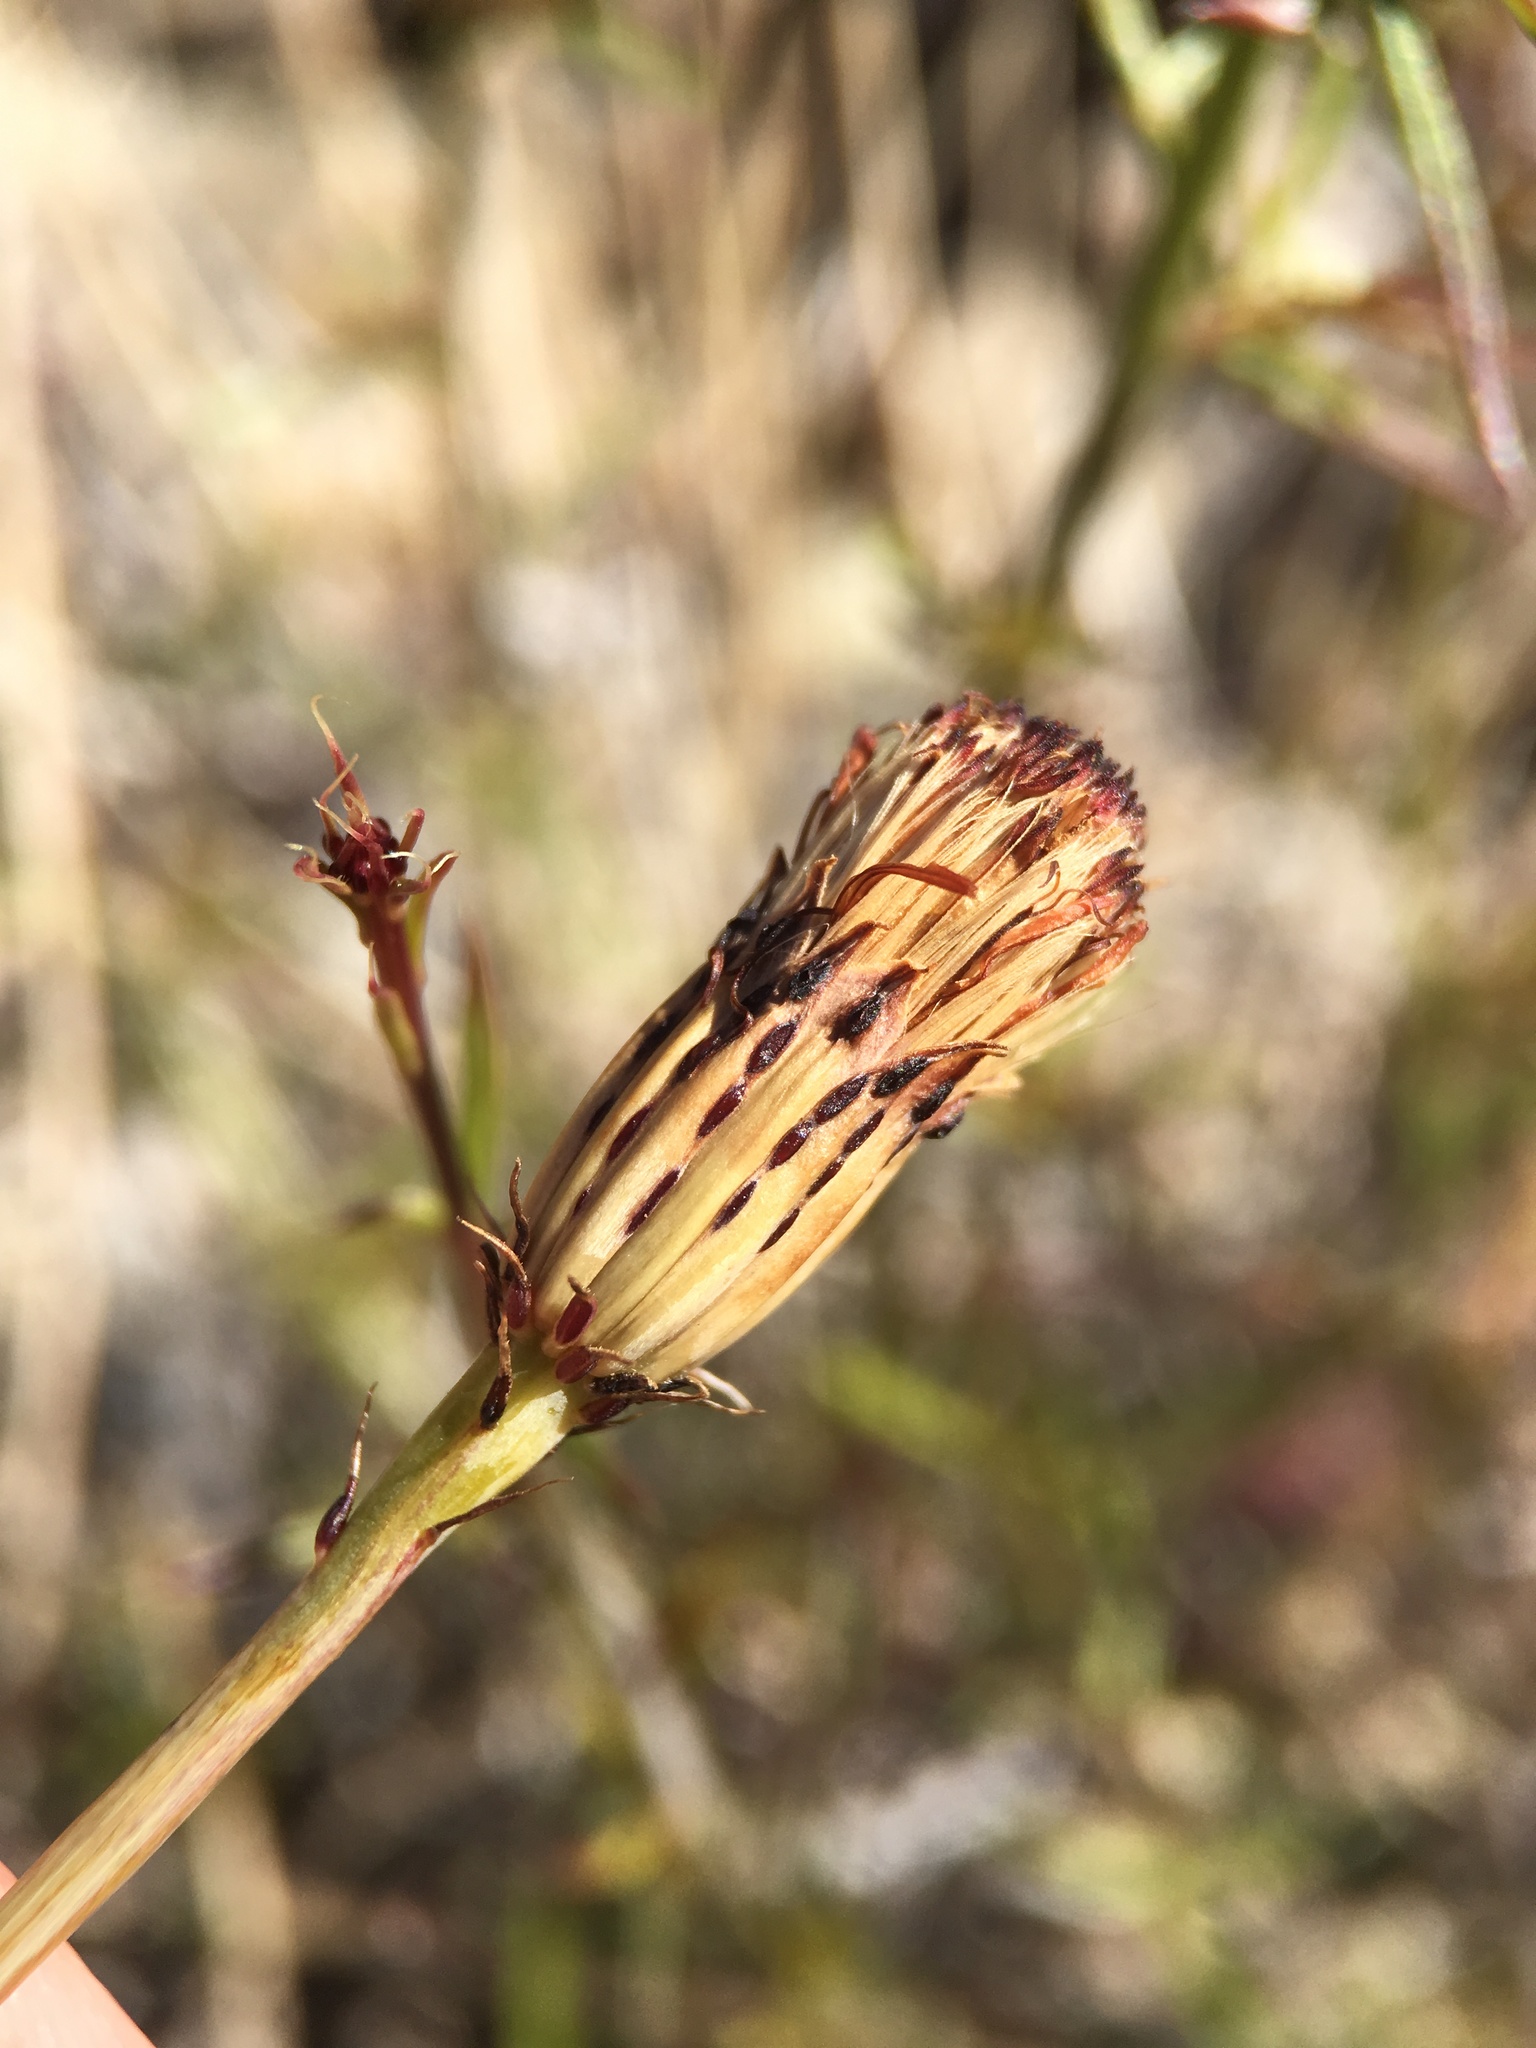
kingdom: Plantae
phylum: Tracheophyta
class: Magnoliopsida
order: Asterales
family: Asteraceae
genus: Adenophyllum
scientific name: Adenophyllum porophylloides
